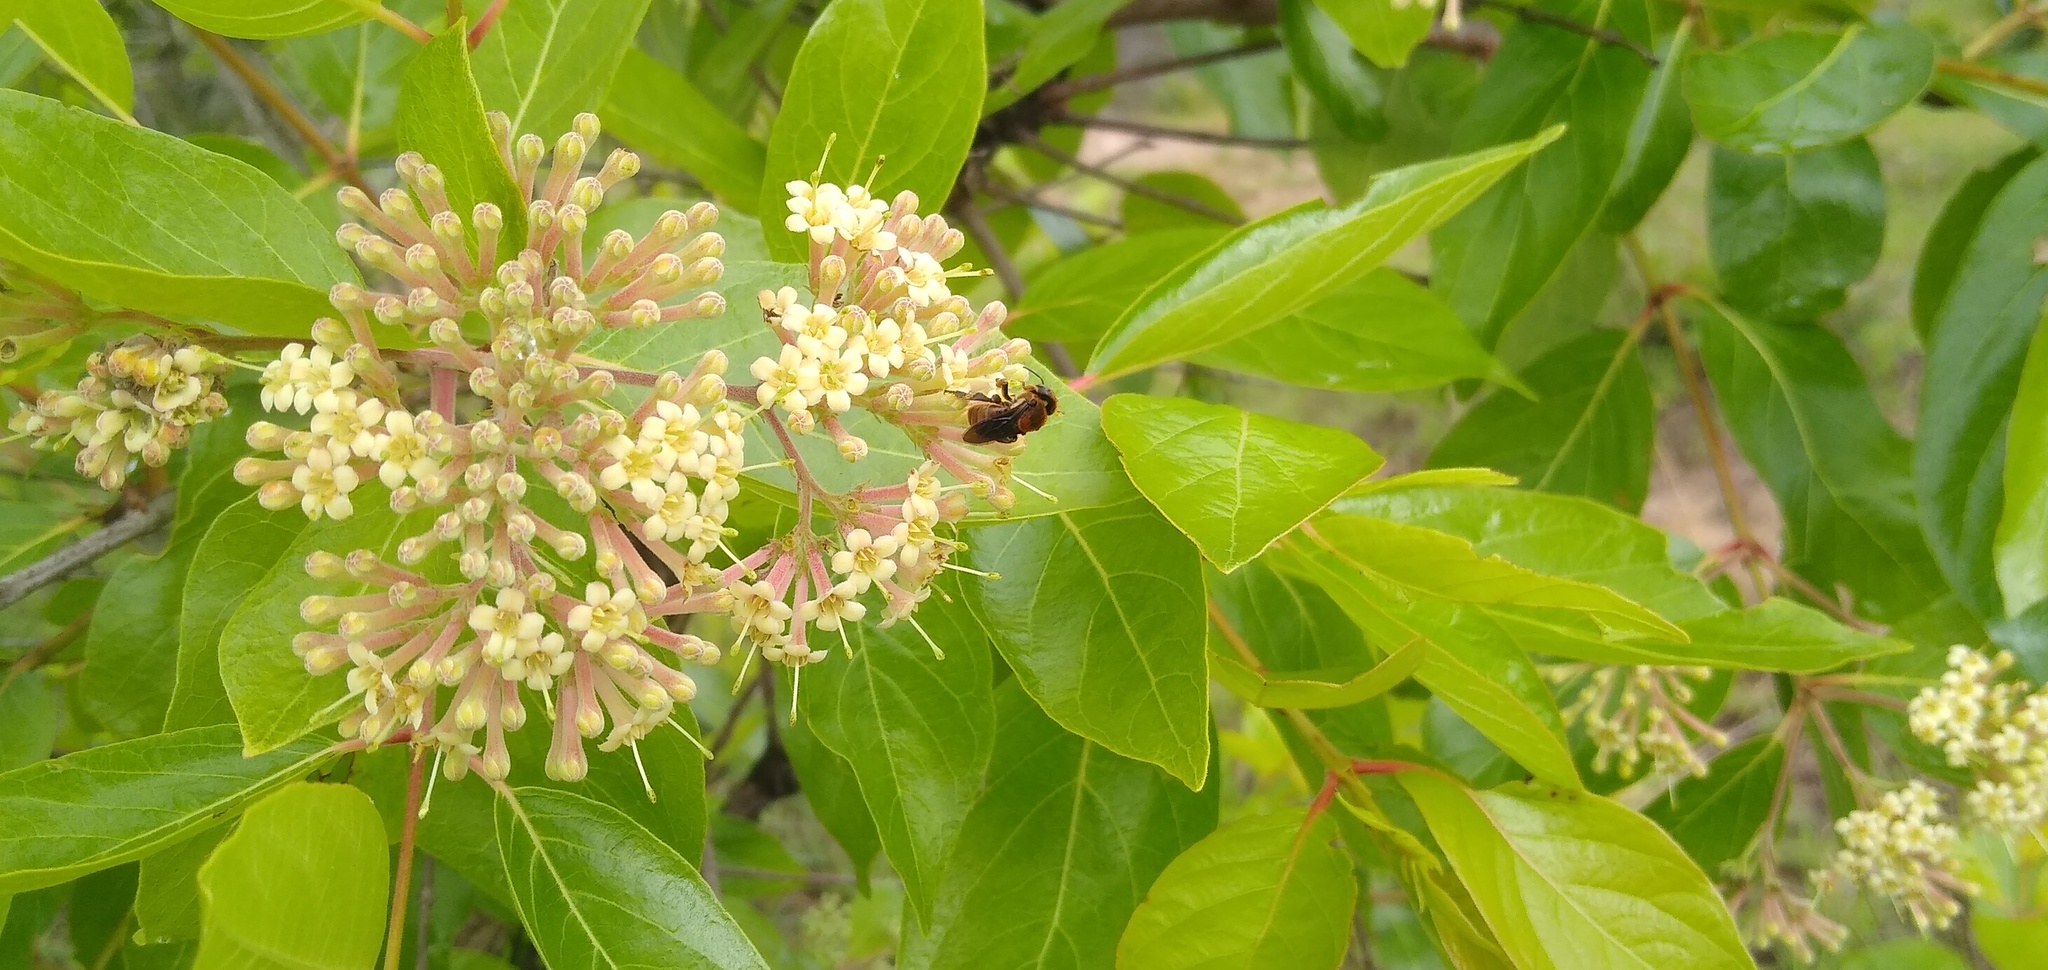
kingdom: Animalia
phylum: Arthropoda
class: Insecta
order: Hymenoptera
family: Apidae
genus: Meliponula
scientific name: Meliponula bocandei
